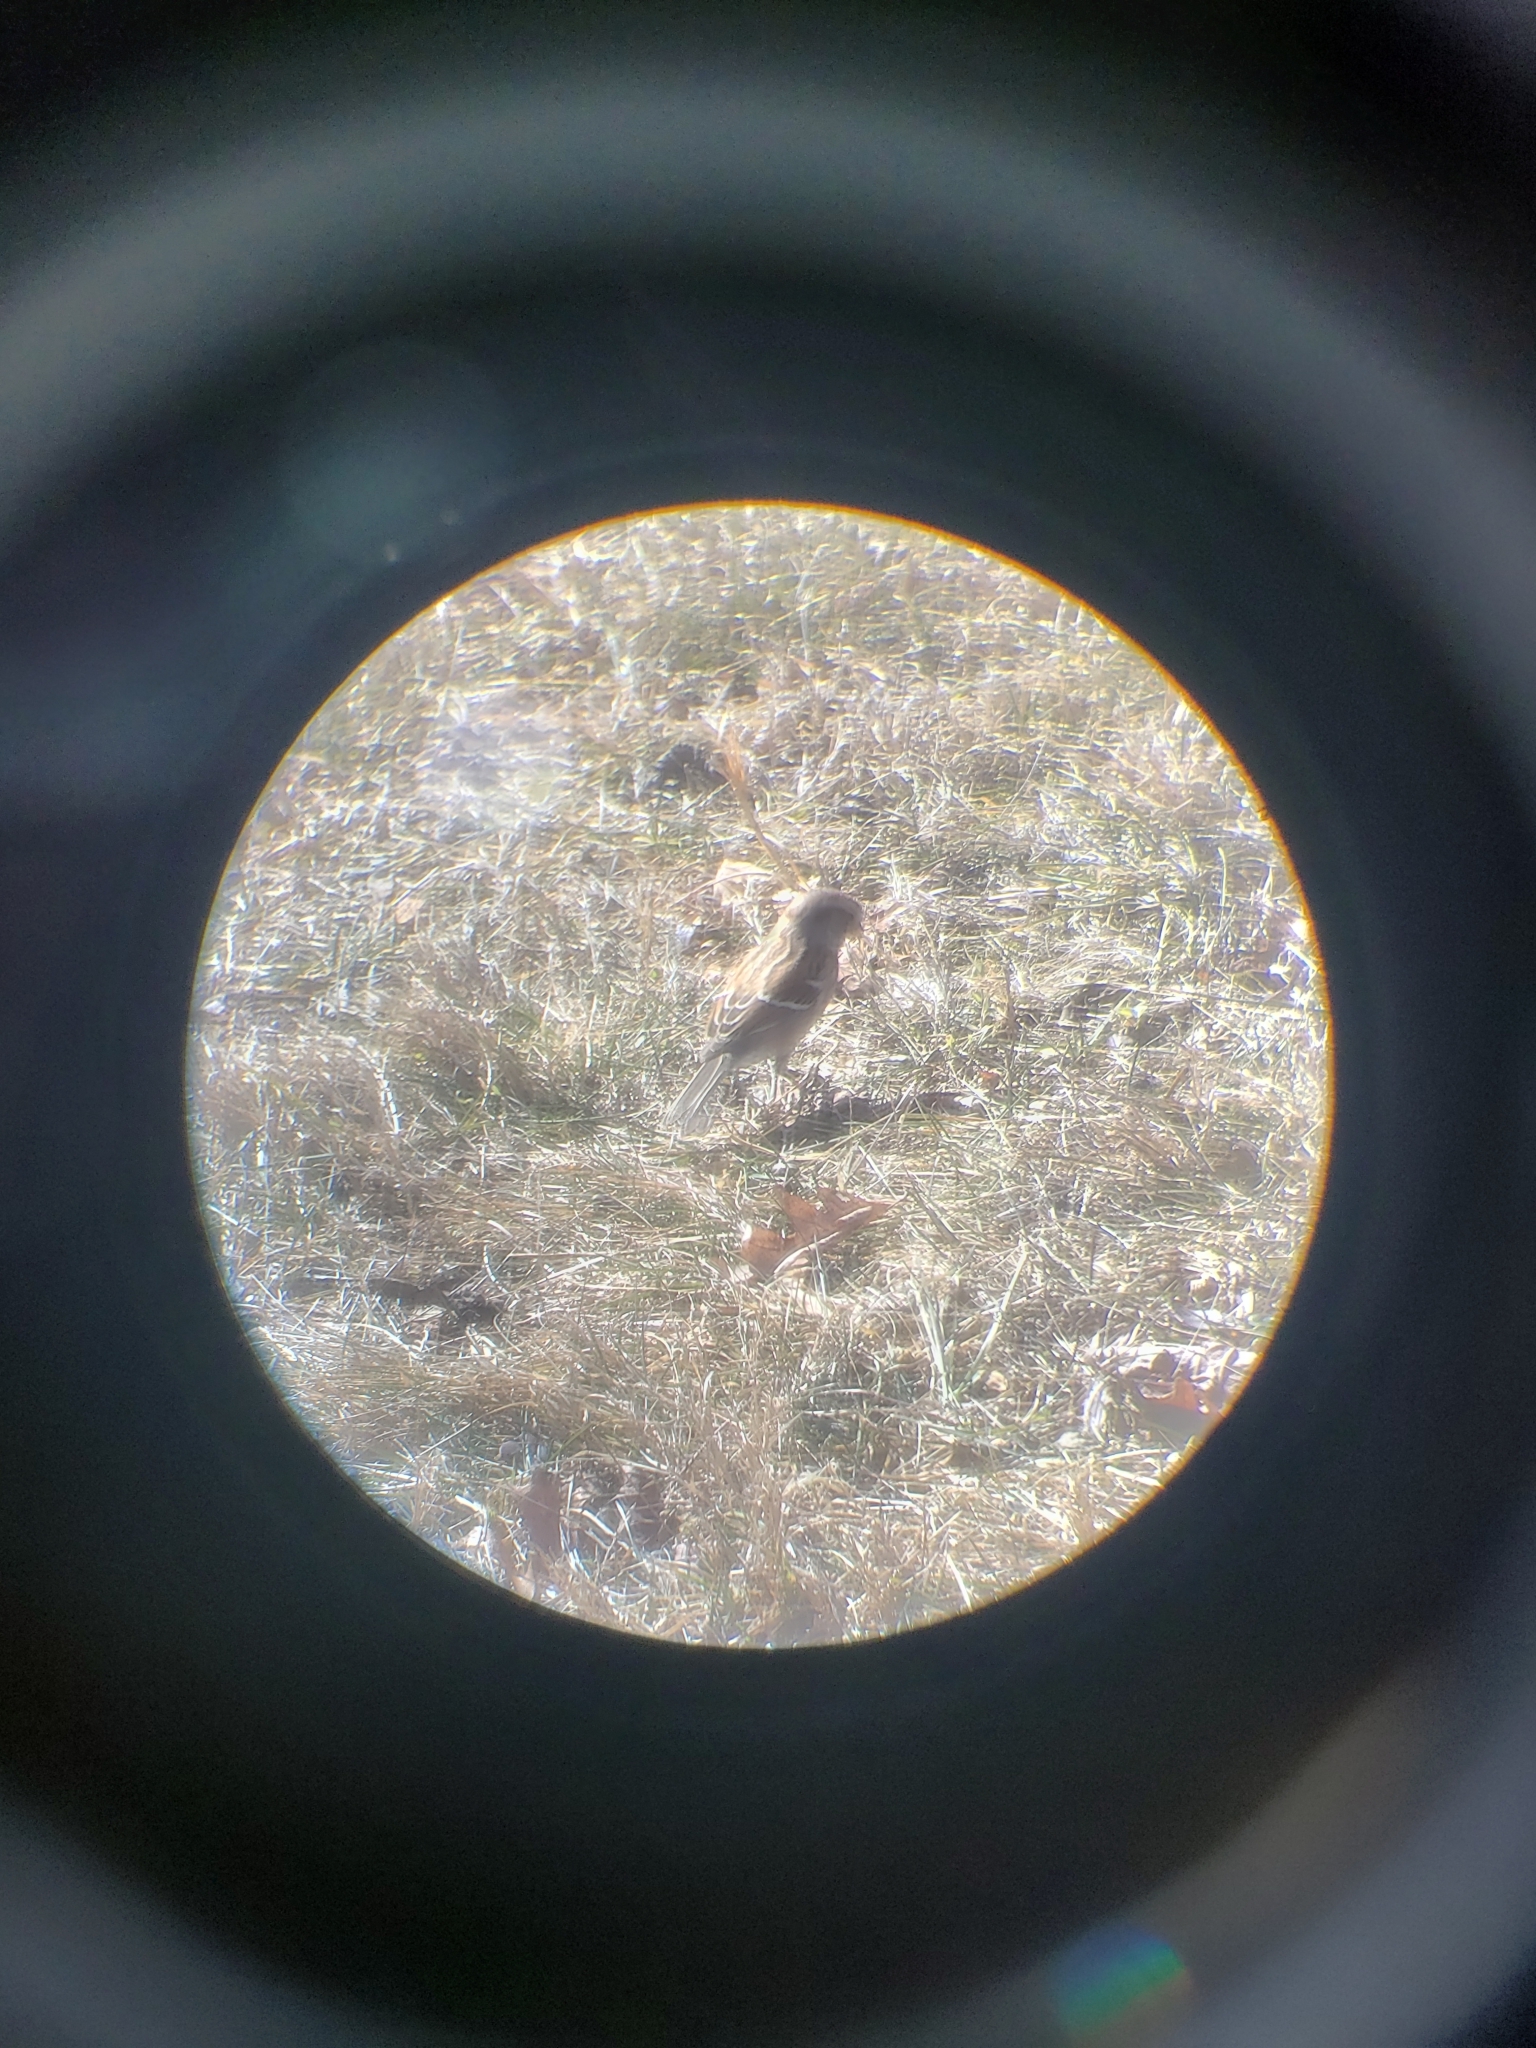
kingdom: Animalia
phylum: Chordata
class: Aves
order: Passeriformes
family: Passerellidae
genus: Spizella
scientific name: Spizella passerina
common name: Chipping sparrow
